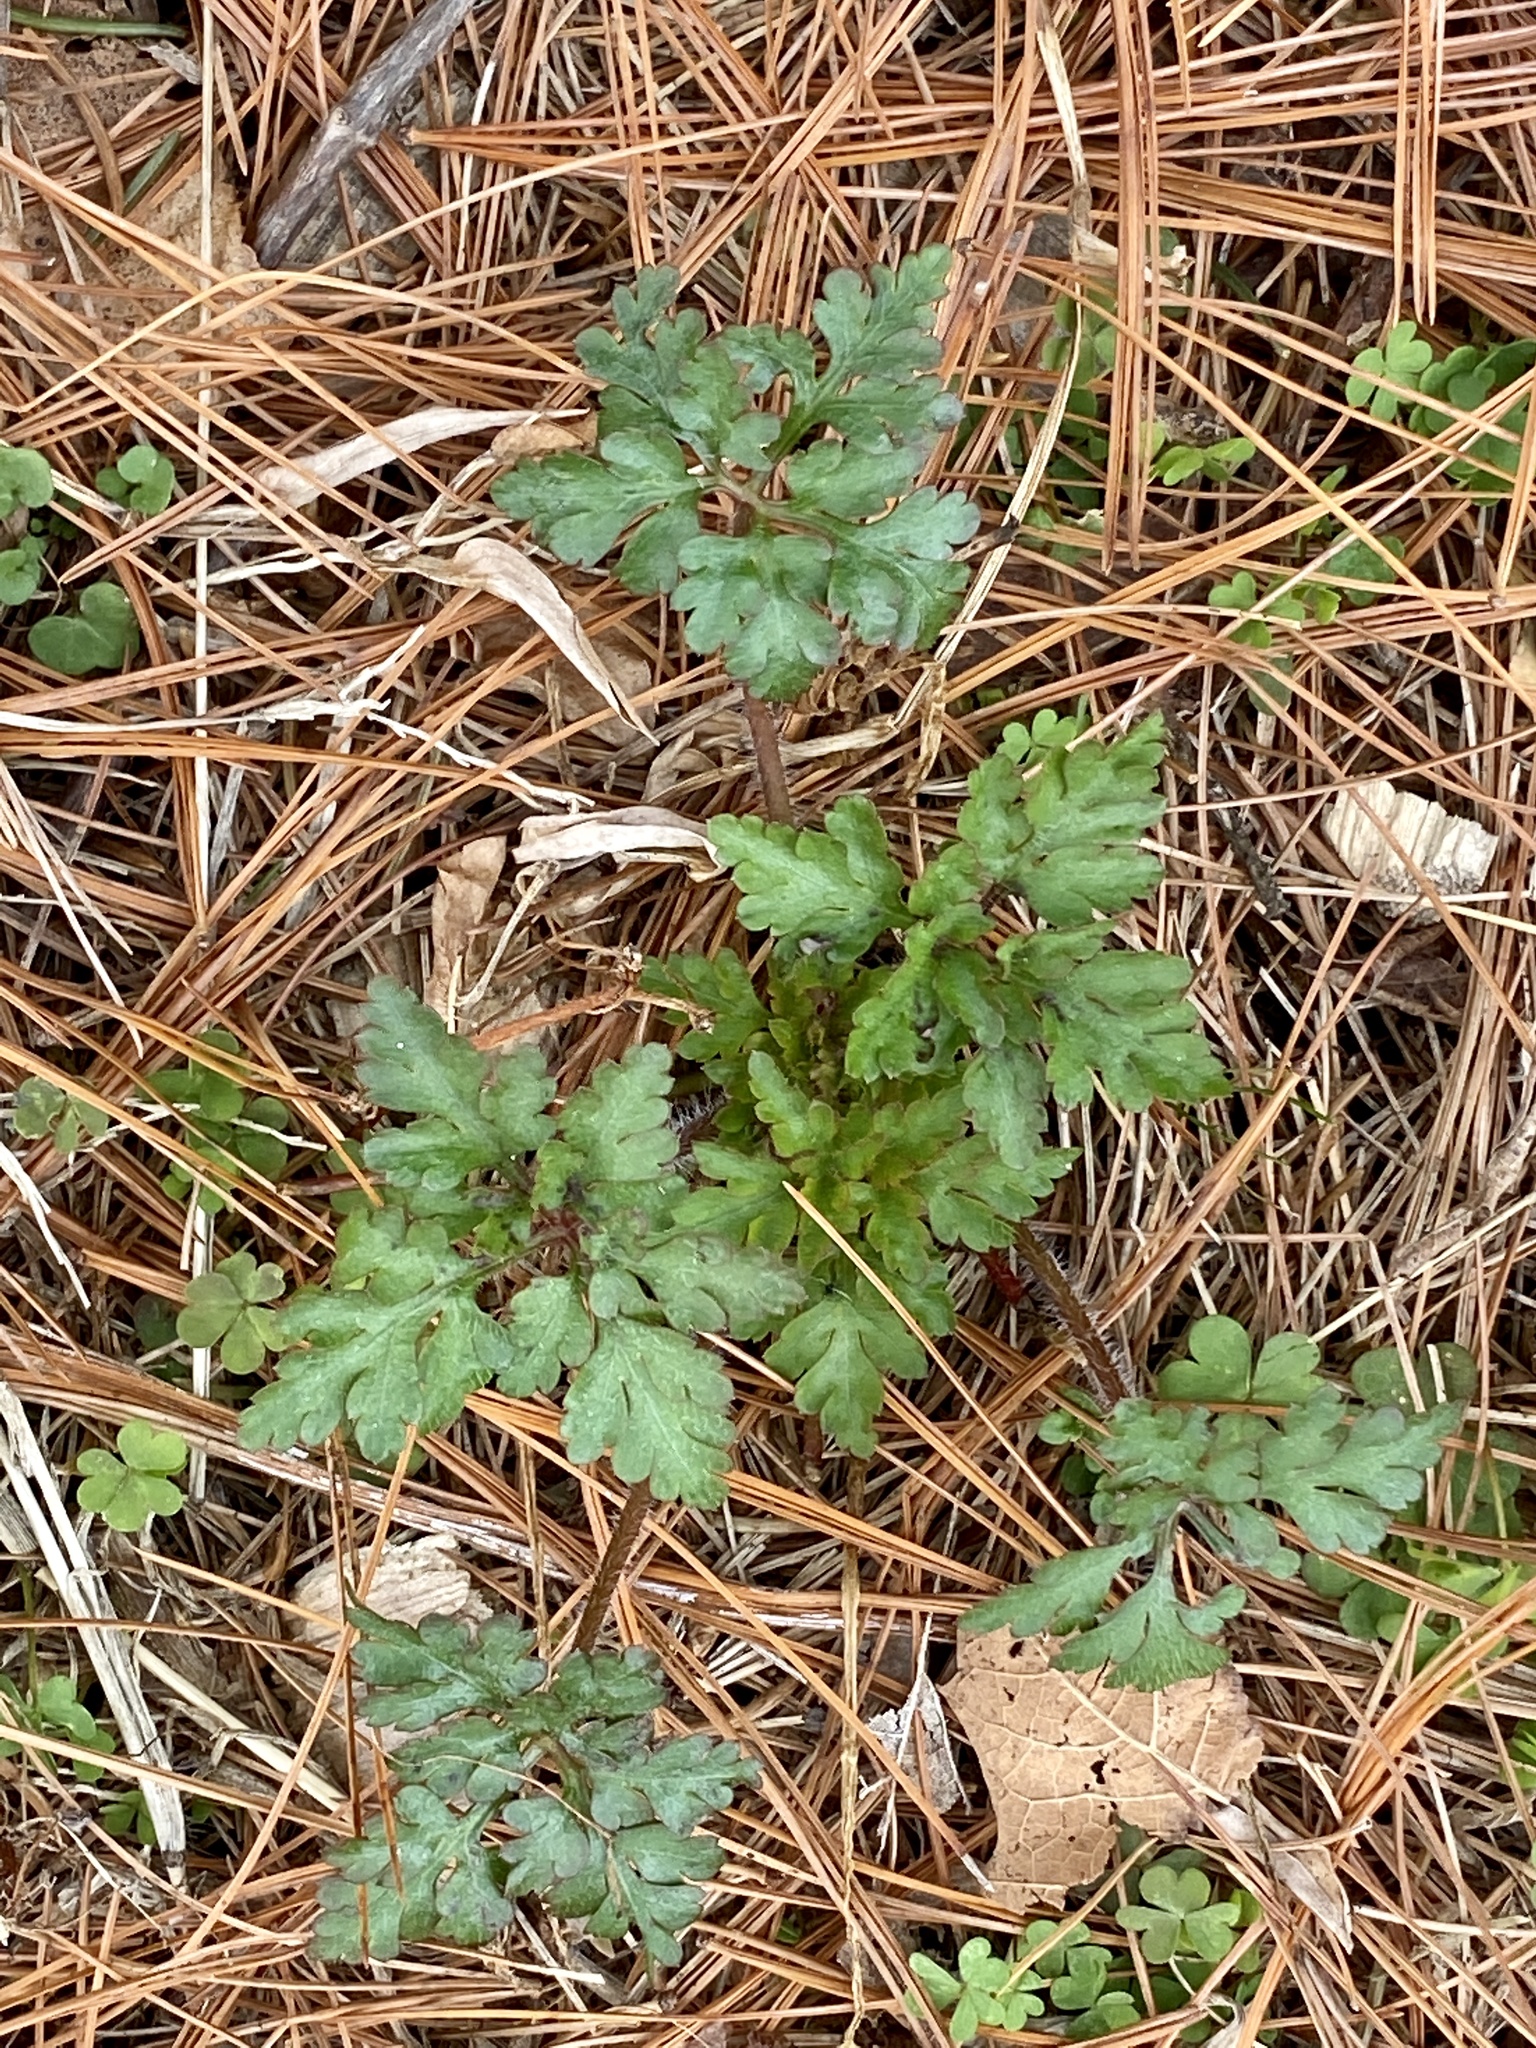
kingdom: Plantae
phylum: Tracheophyta
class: Magnoliopsida
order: Geraniales
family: Geraniaceae
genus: Geranium
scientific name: Geranium robertianum
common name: Herb-robert
